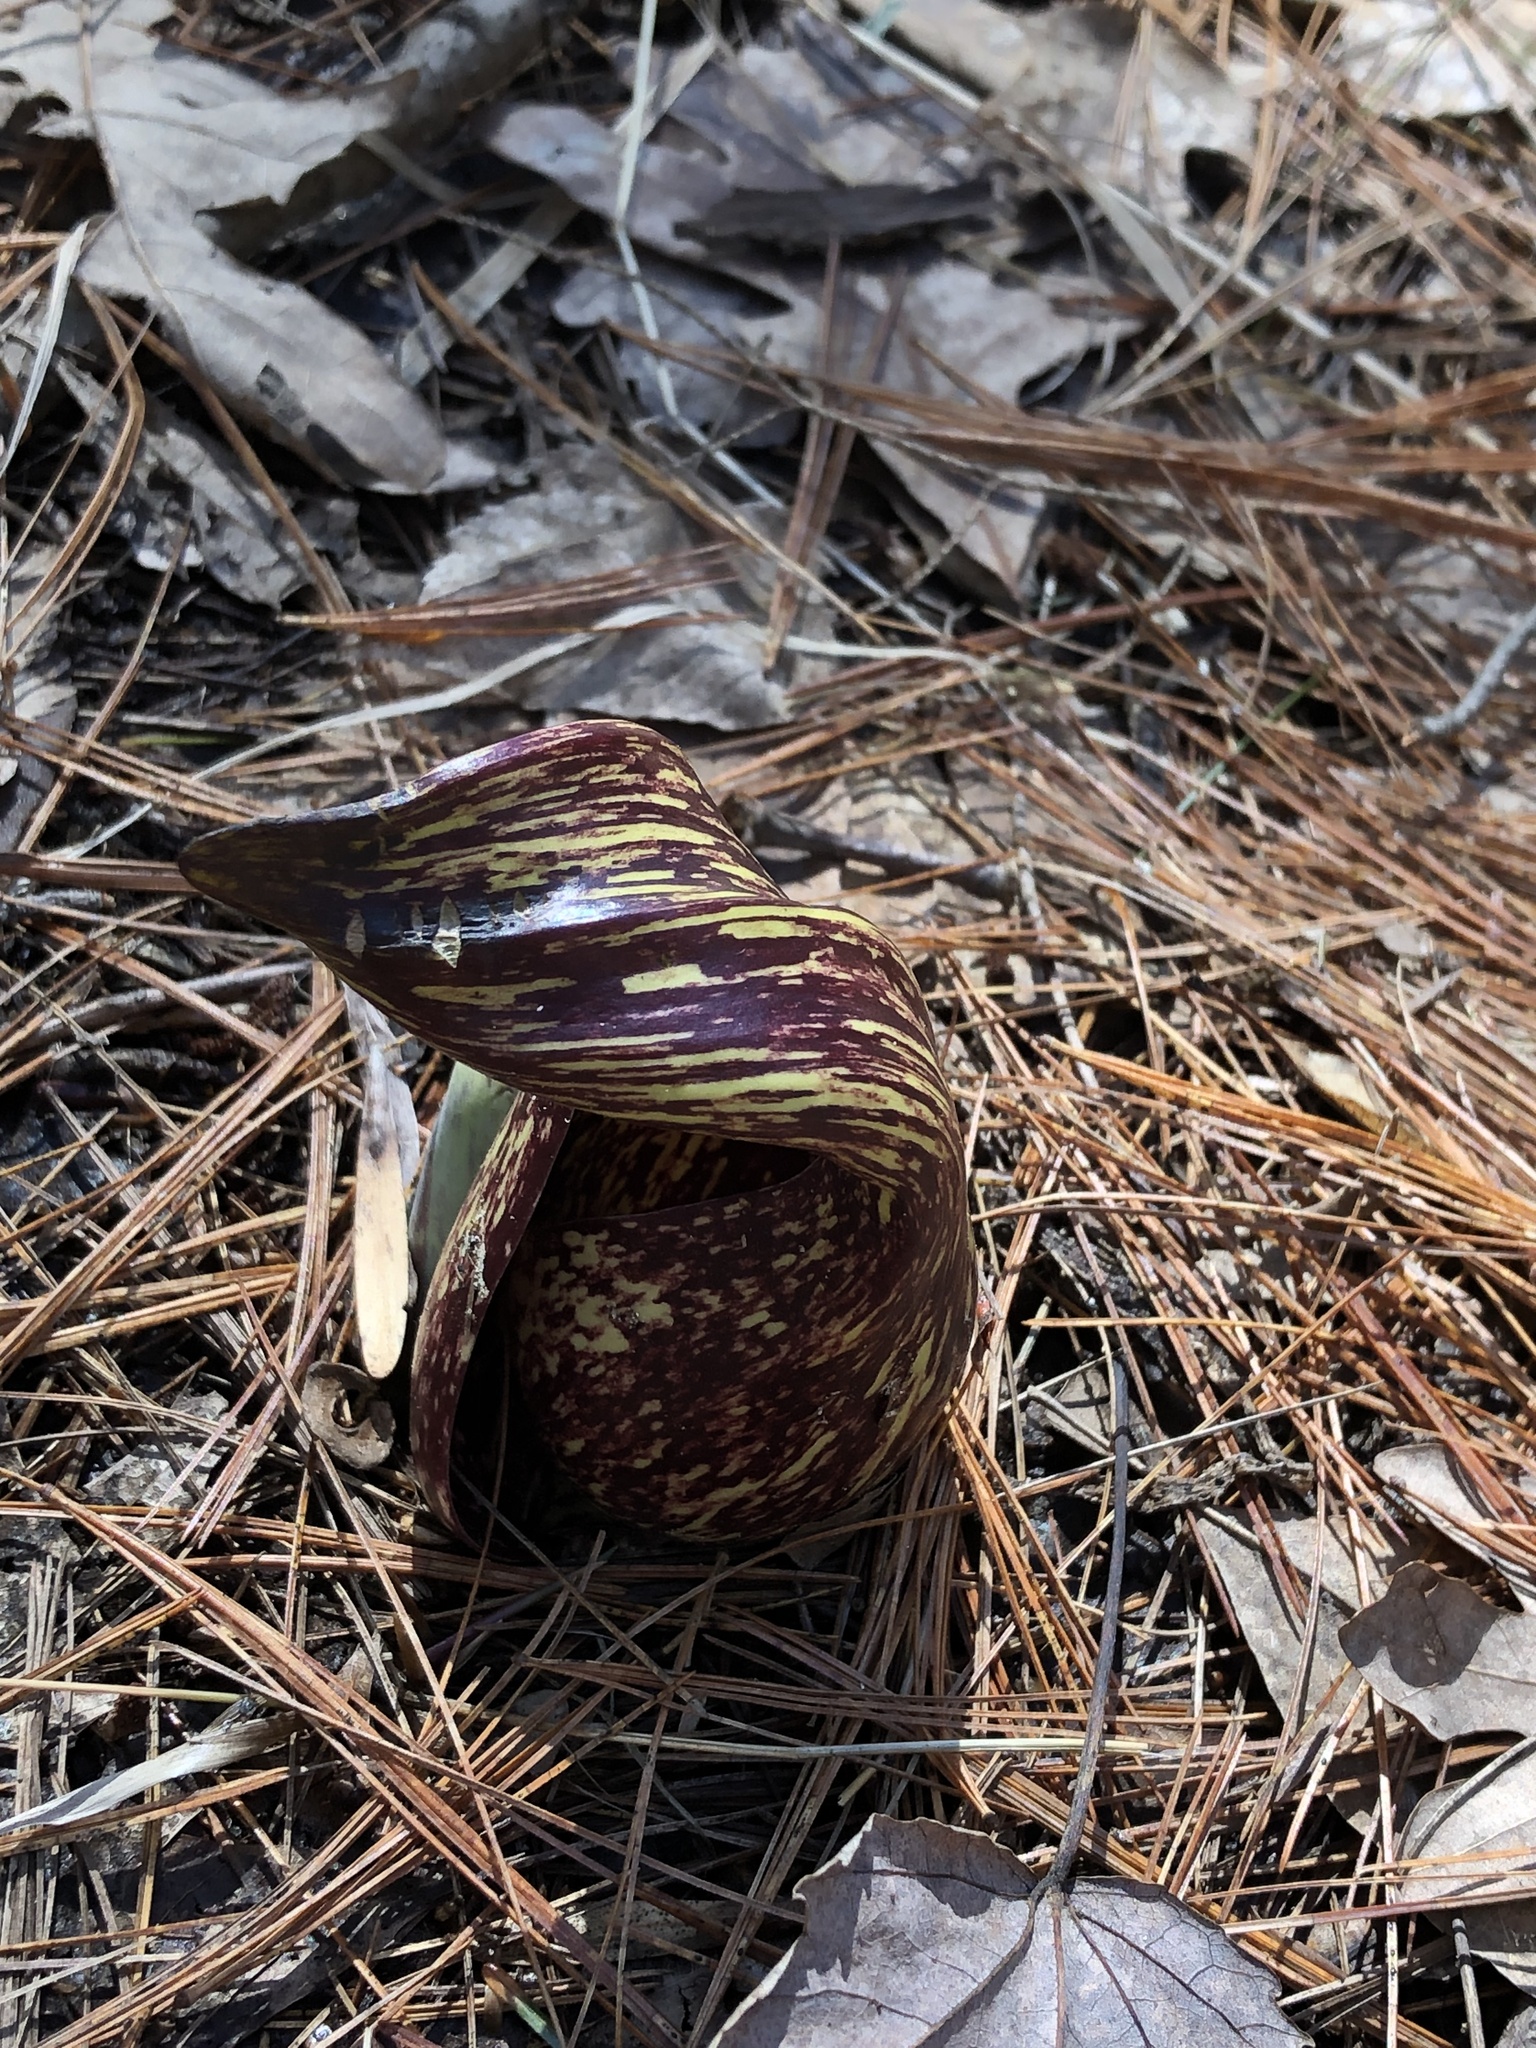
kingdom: Plantae
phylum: Tracheophyta
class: Liliopsida
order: Alismatales
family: Araceae
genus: Symplocarpus
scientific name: Symplocarpus foetidus
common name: Eastern skunk cabbage
